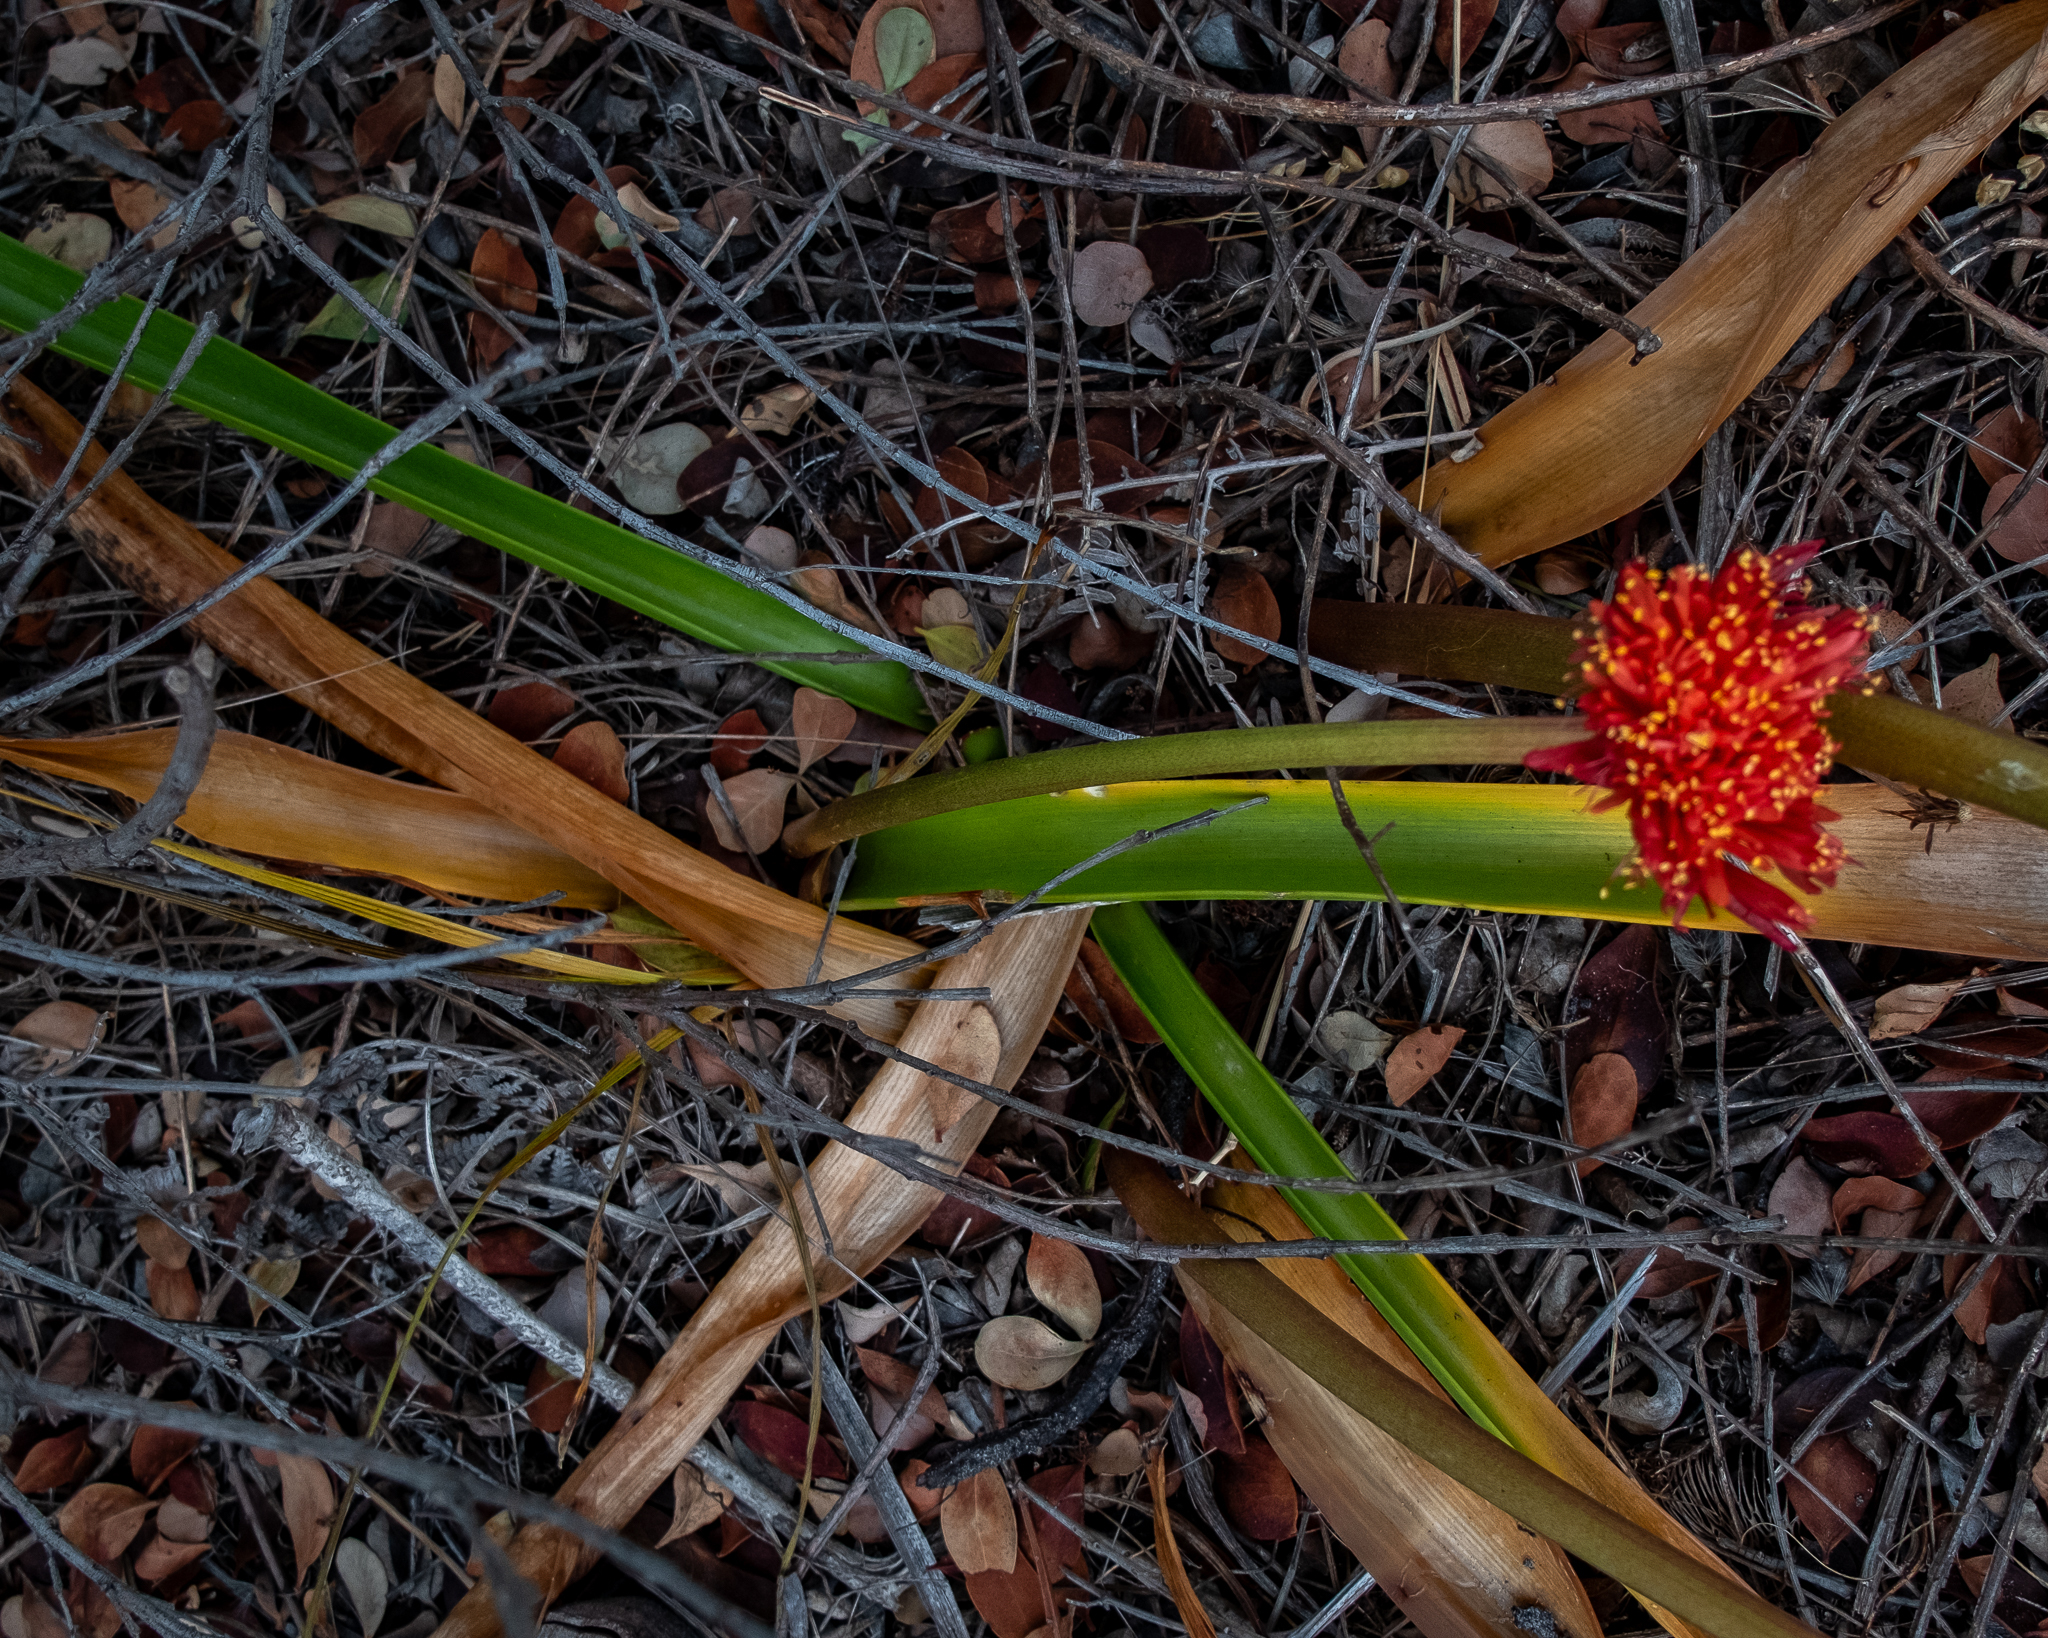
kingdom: Plantae
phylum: Tracheophyta
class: Liliopsida
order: Asparagales
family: Amaryllidaceae
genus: Haemanthus
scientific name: Haemanthus canaliculatus
